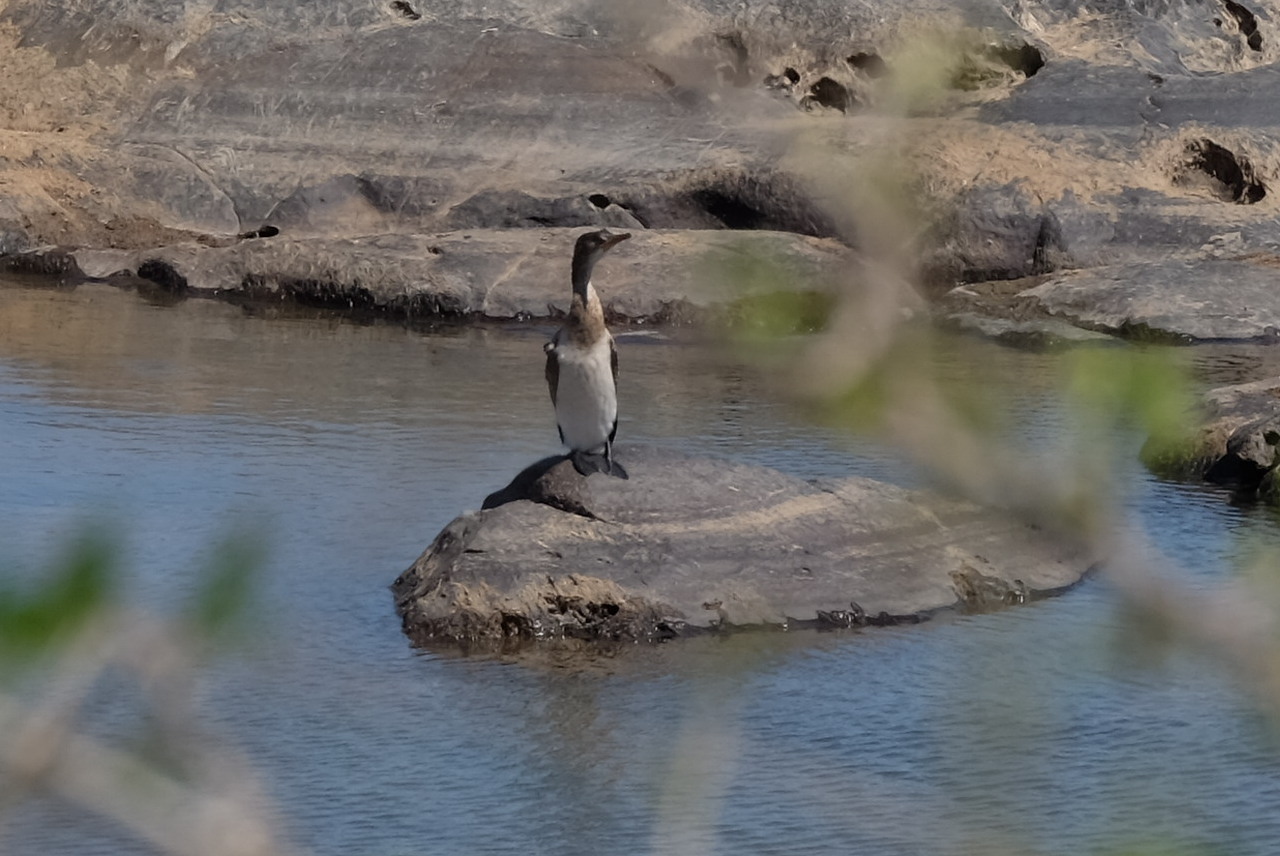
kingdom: Animalia
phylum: Chordata
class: Aves
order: Suliformes
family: Phalacrocoracidae
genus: Microcarbo
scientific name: Microcarbo africanus
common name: Long-tailed cormorant
